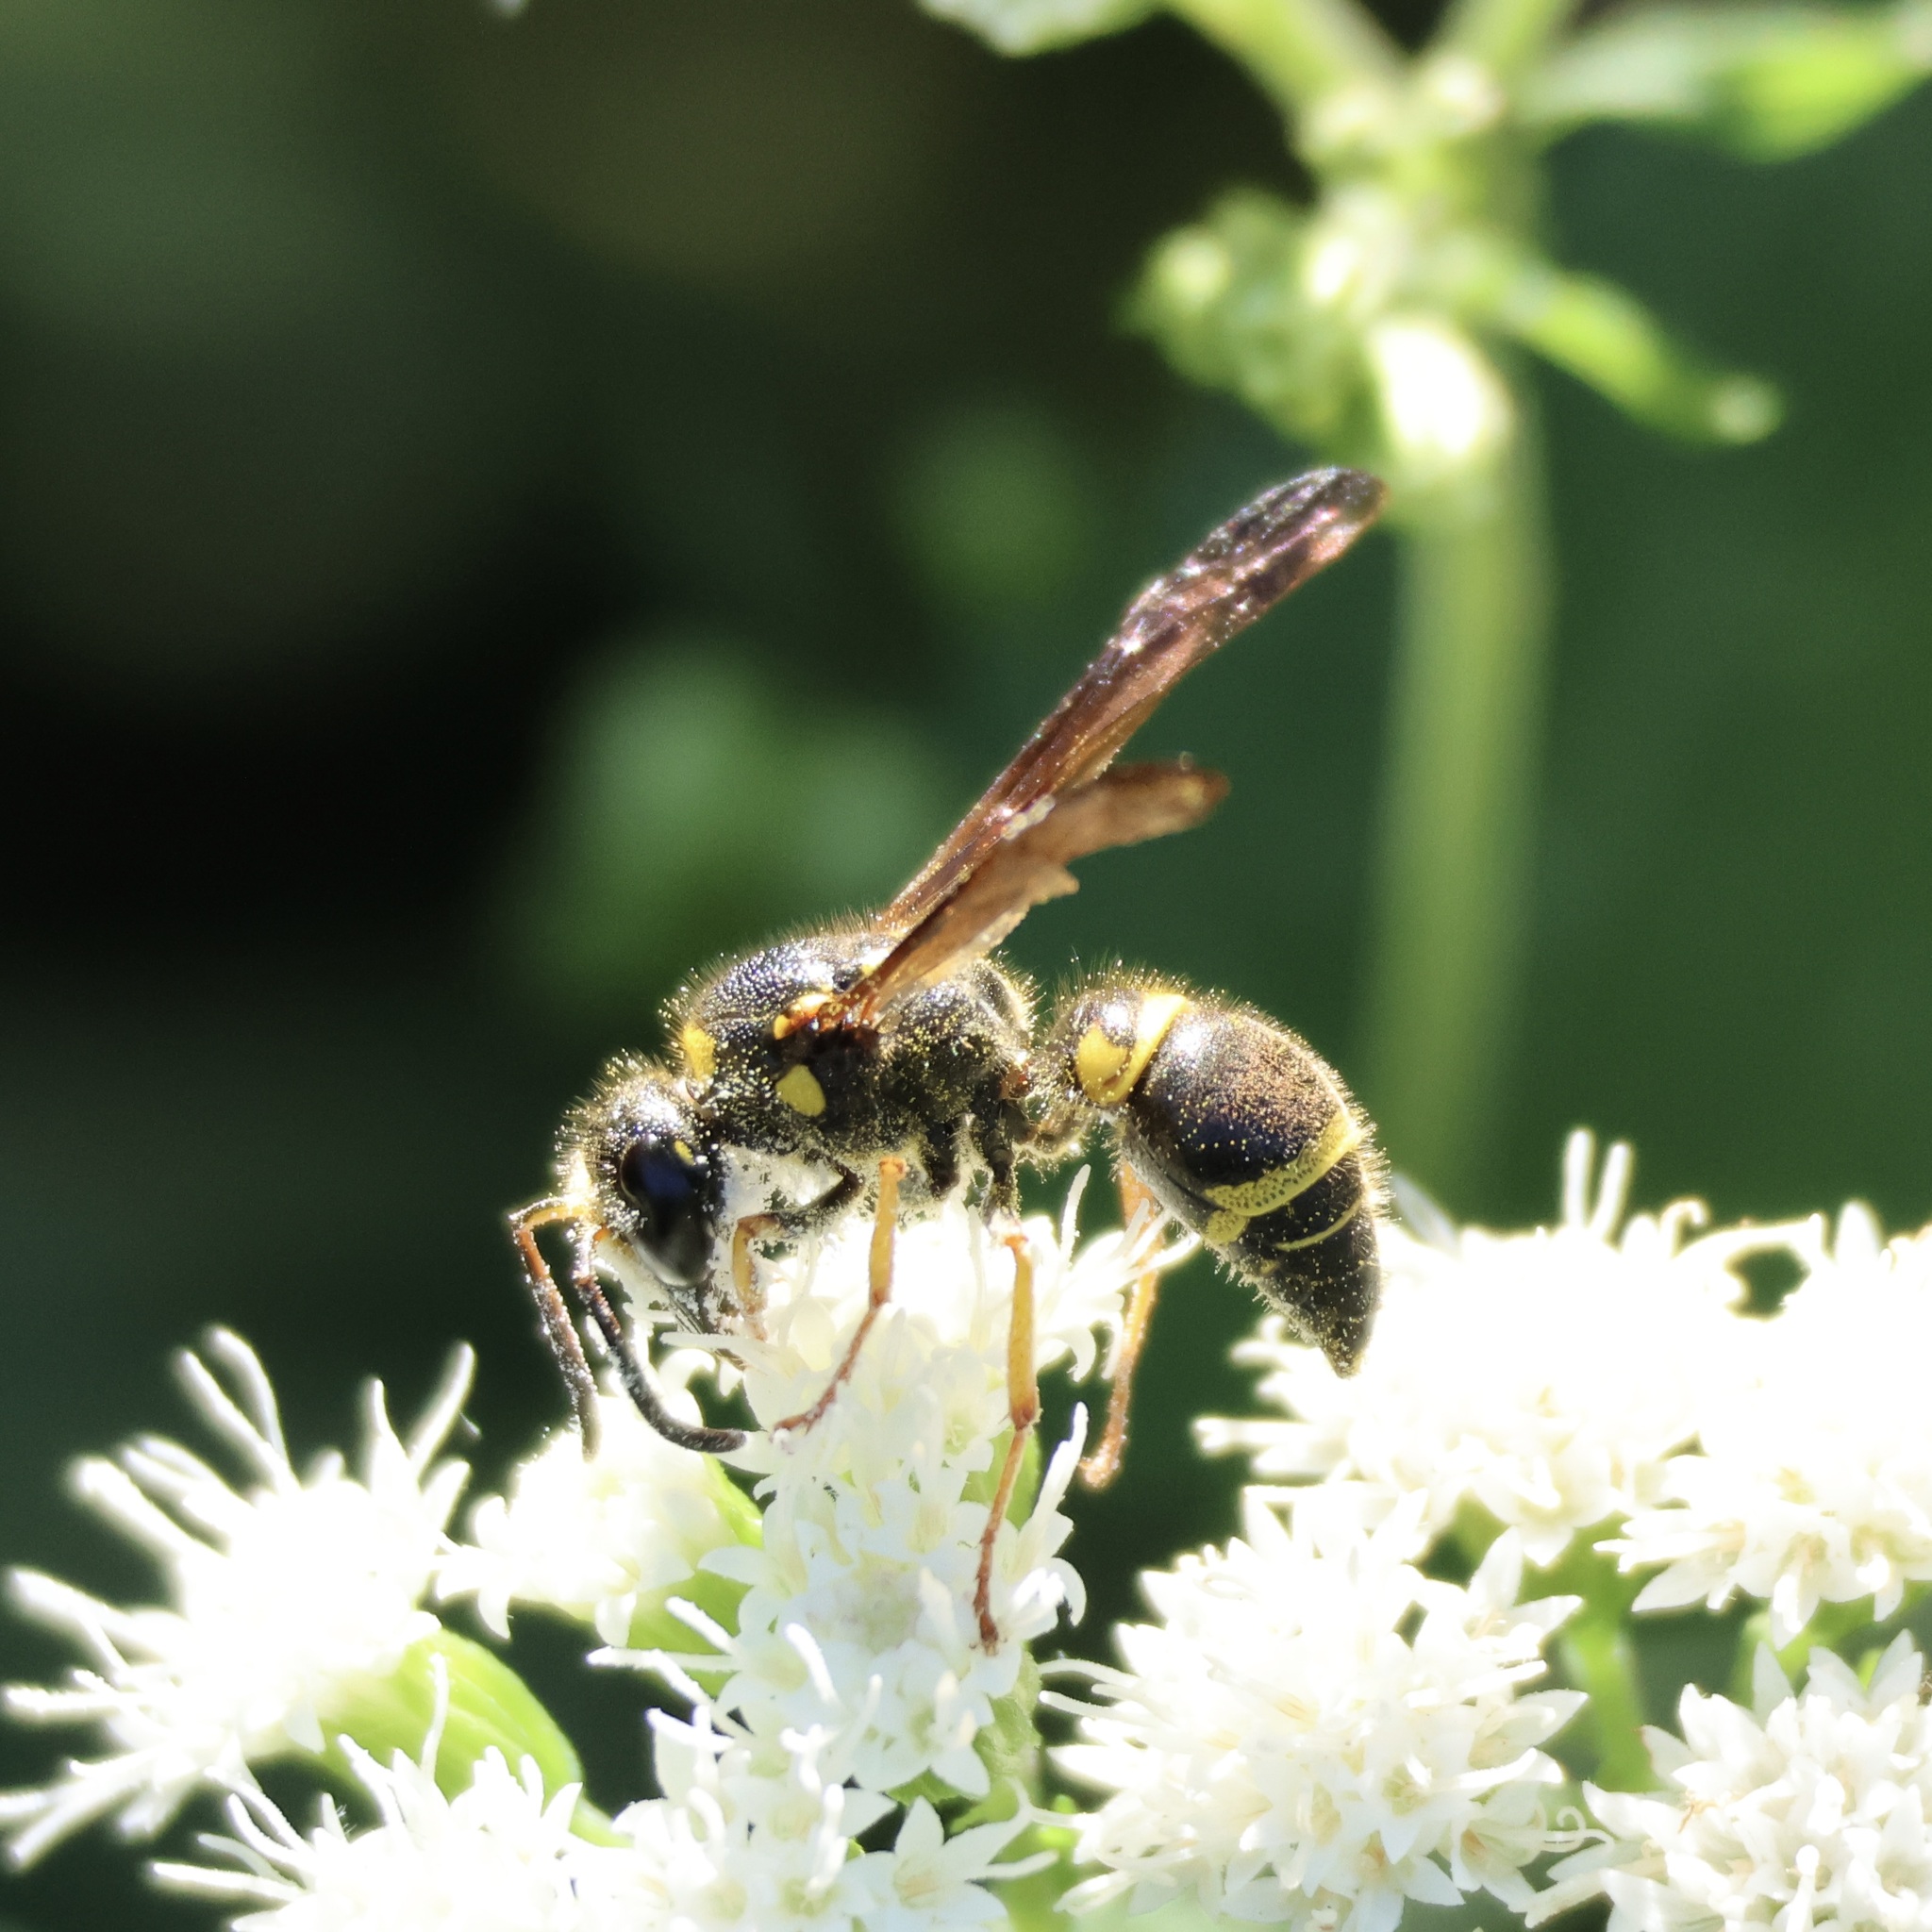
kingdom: Animalia
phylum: Arthropoda
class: Insecta
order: Hymenoptera
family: Vespidae
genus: Ancistrocerus
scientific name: Ancistrocerus campestris
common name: Smiling mason wasp
